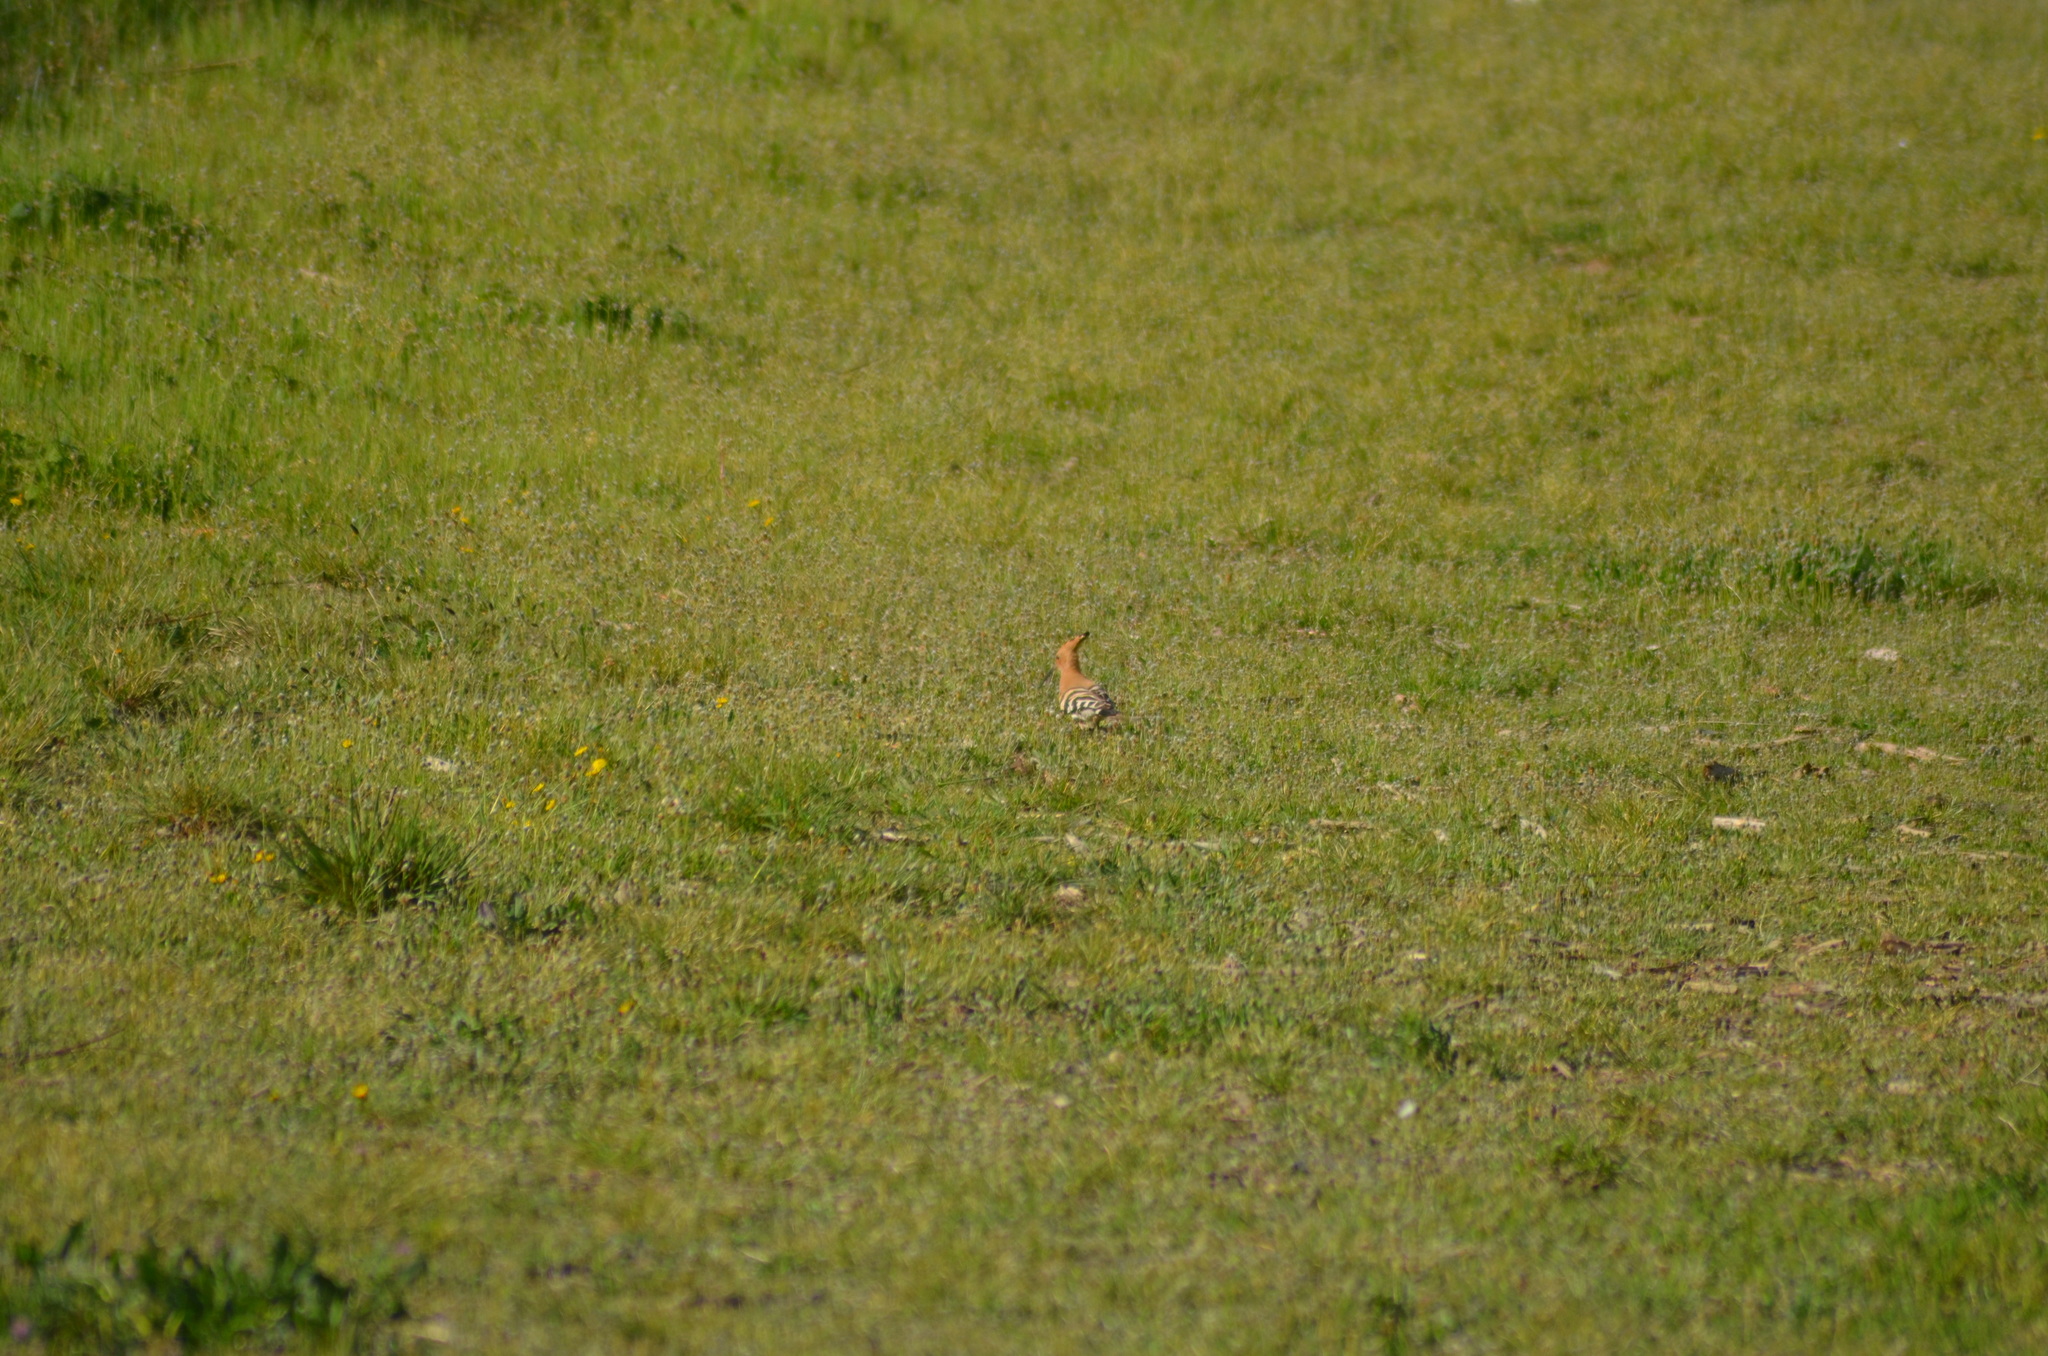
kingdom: Animalia
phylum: Chordata
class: Aves
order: Bucerotiformes
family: Upupidae
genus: Upupa
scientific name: Upupa epops
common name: Eurasian hoopoe
